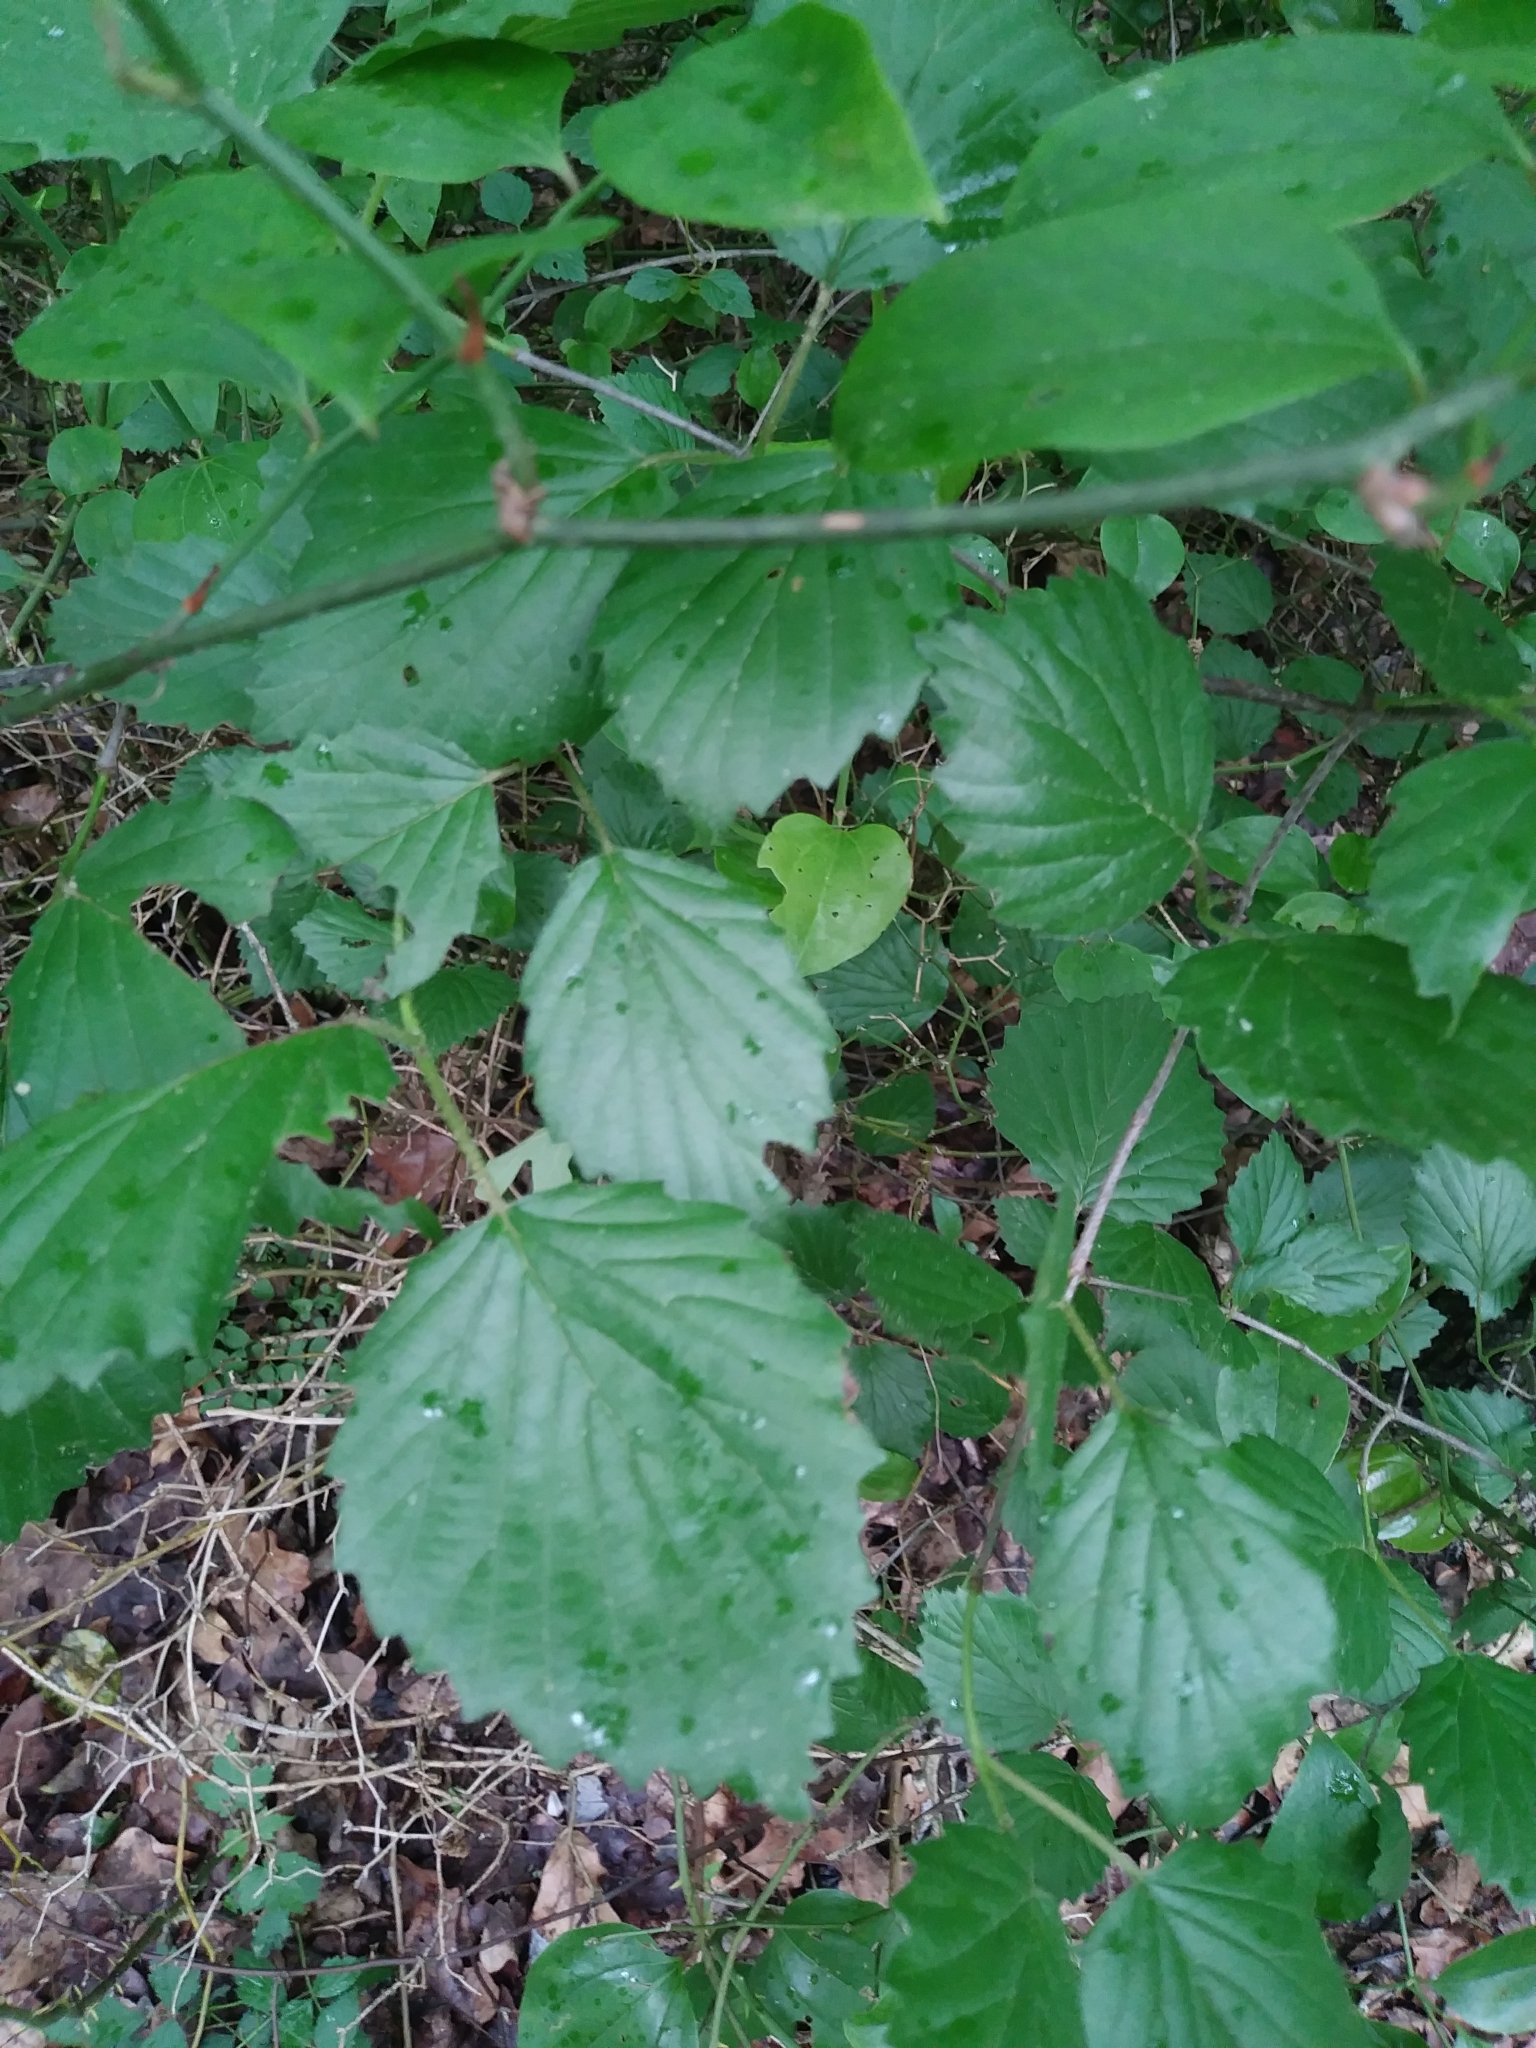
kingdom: Plantae
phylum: Tracheophyta
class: Magnoliopsida
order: Dipsacales
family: Viburnaceae
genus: Viburnum
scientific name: Viburnum dentatum
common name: Arrow-wood
